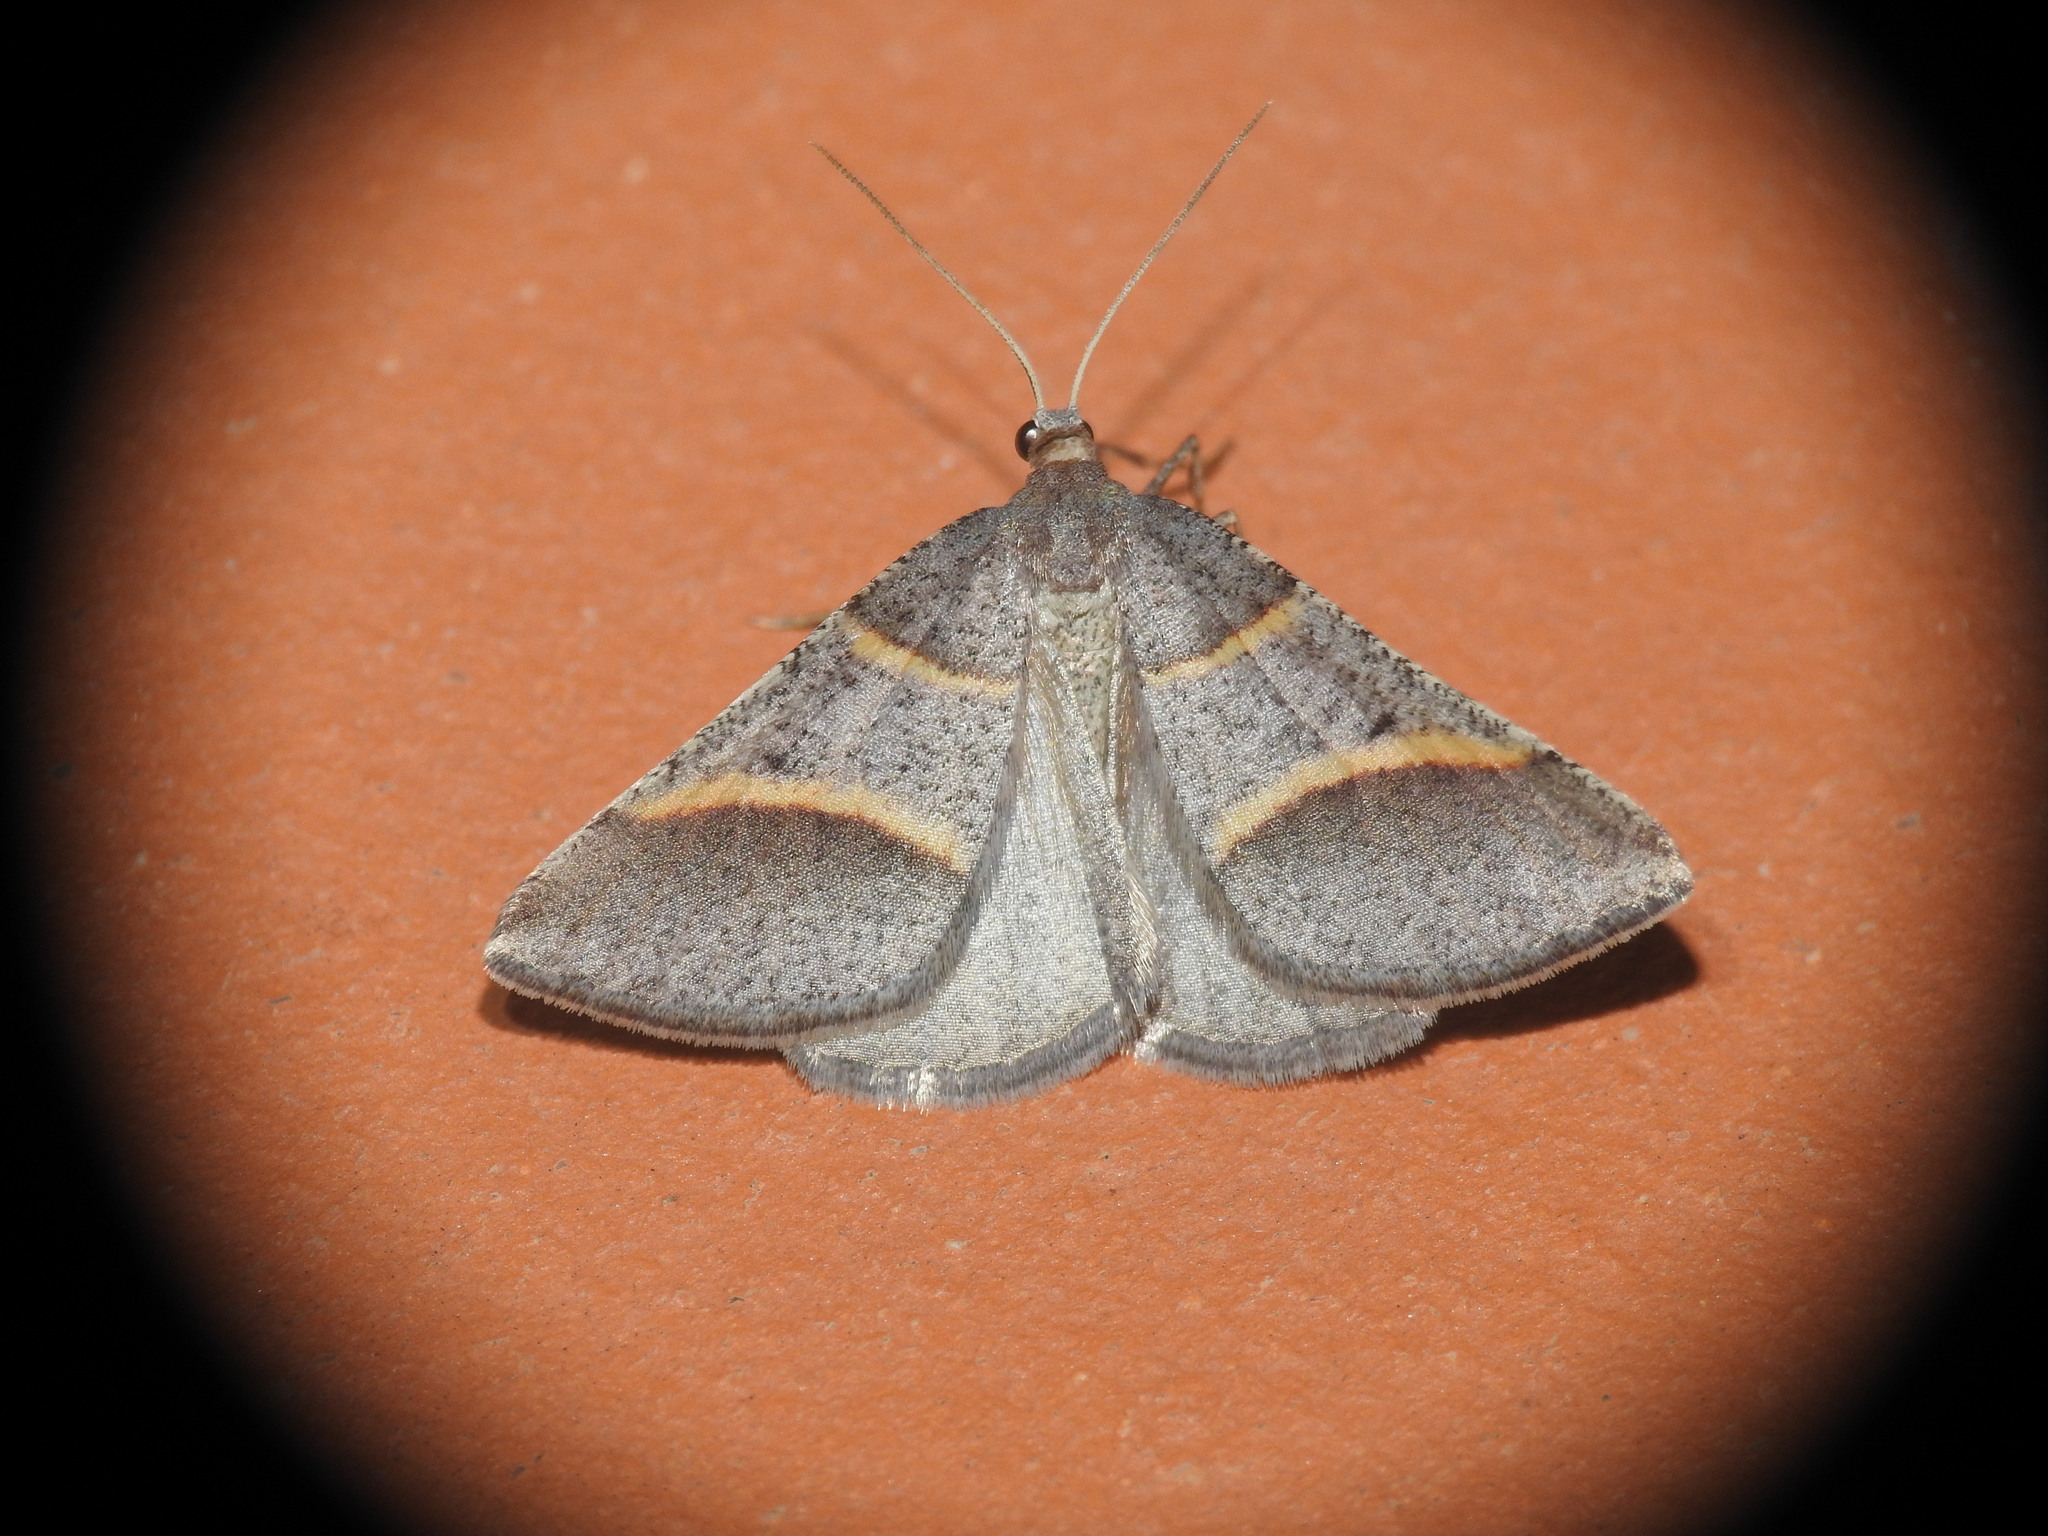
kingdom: Animalia
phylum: Arthropoda
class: Insecta
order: Lepidoptera
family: Pterophoridae
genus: Pterophorus
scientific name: Pterophorus Petrophora convergata
